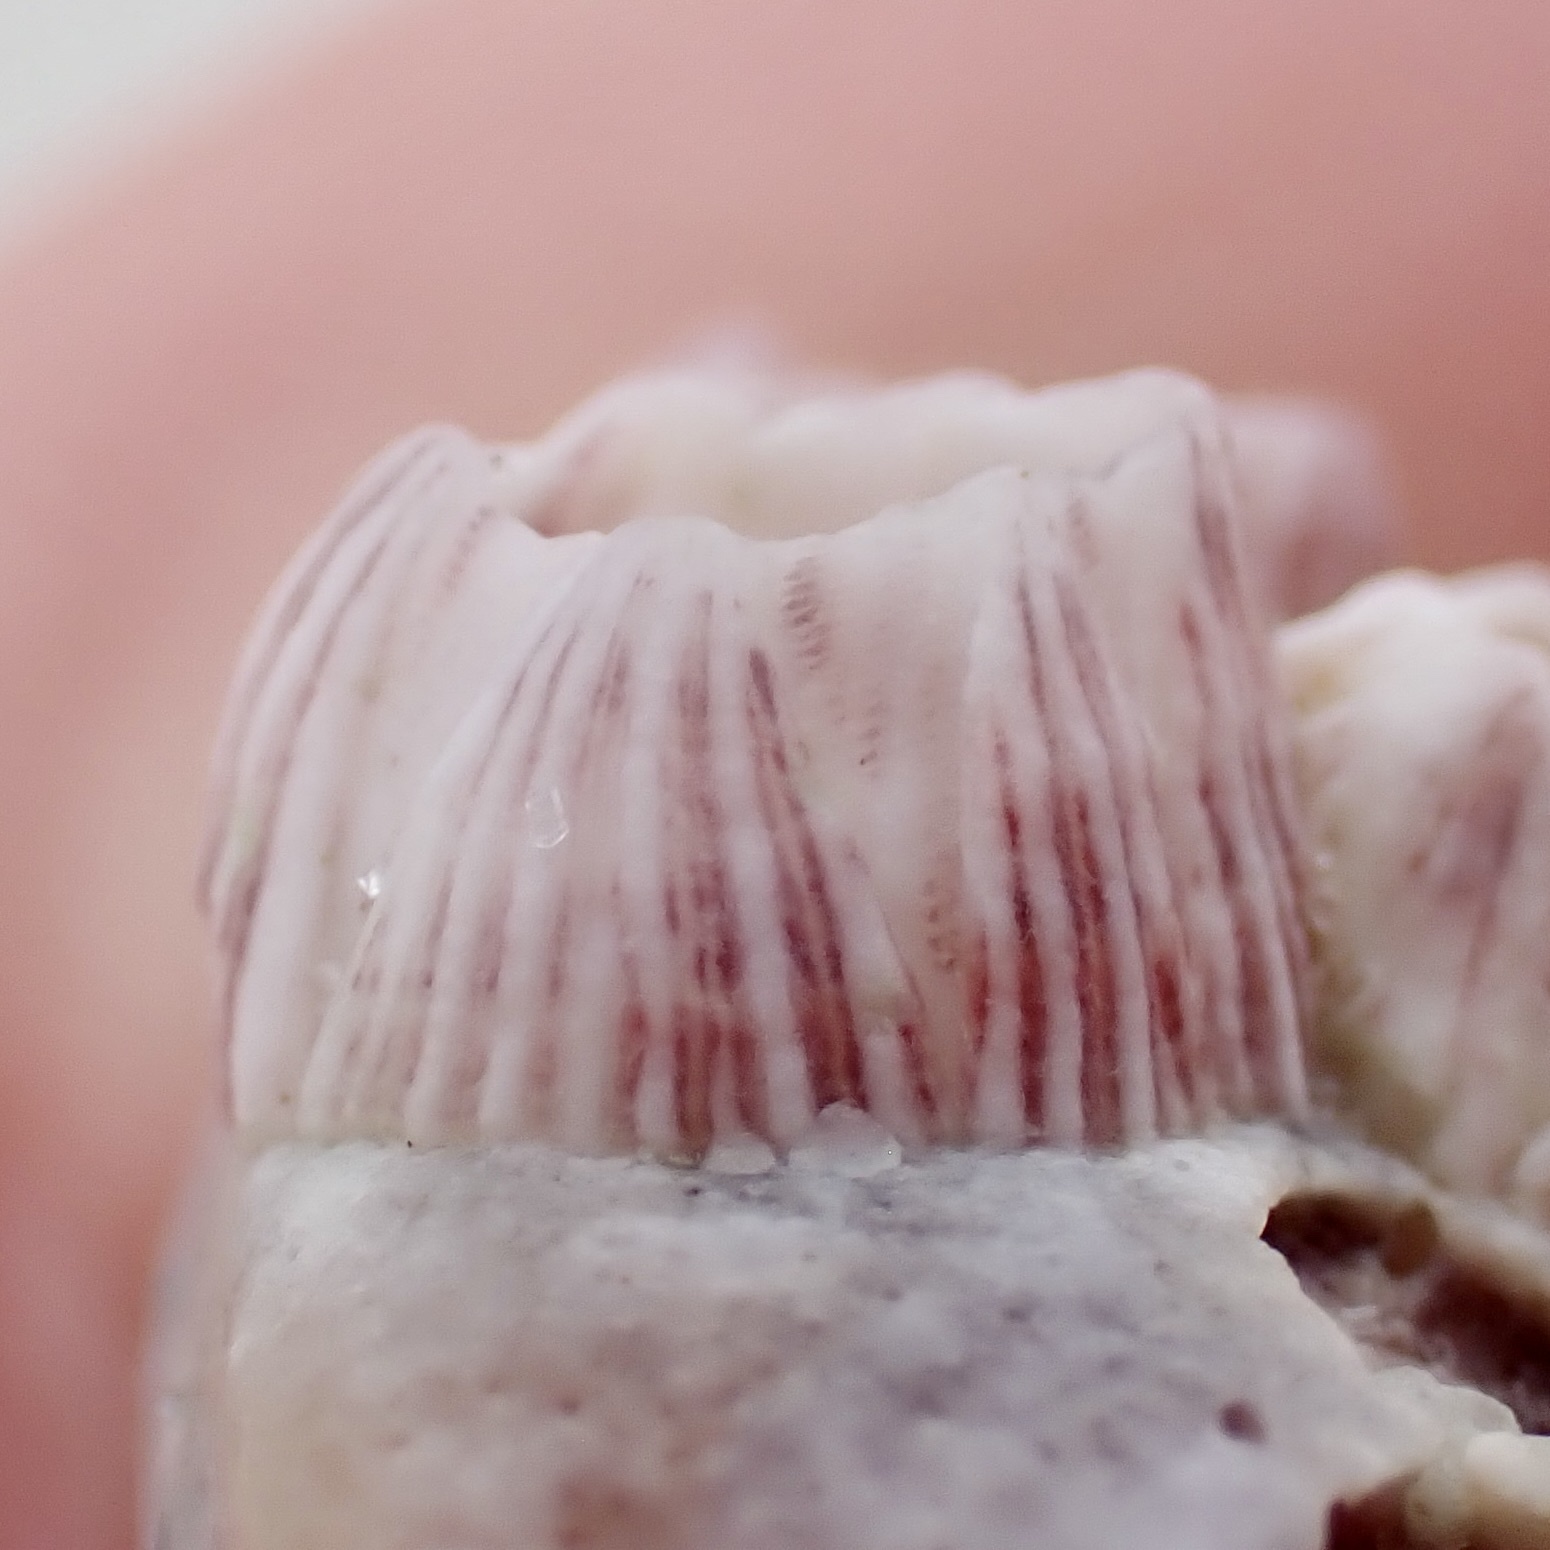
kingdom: Animalia
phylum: Arthropoda
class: Maxillopoda
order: Sessilia
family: Balanidae
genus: Balanus
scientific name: Balanus trigonus
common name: Triangle barnacle
